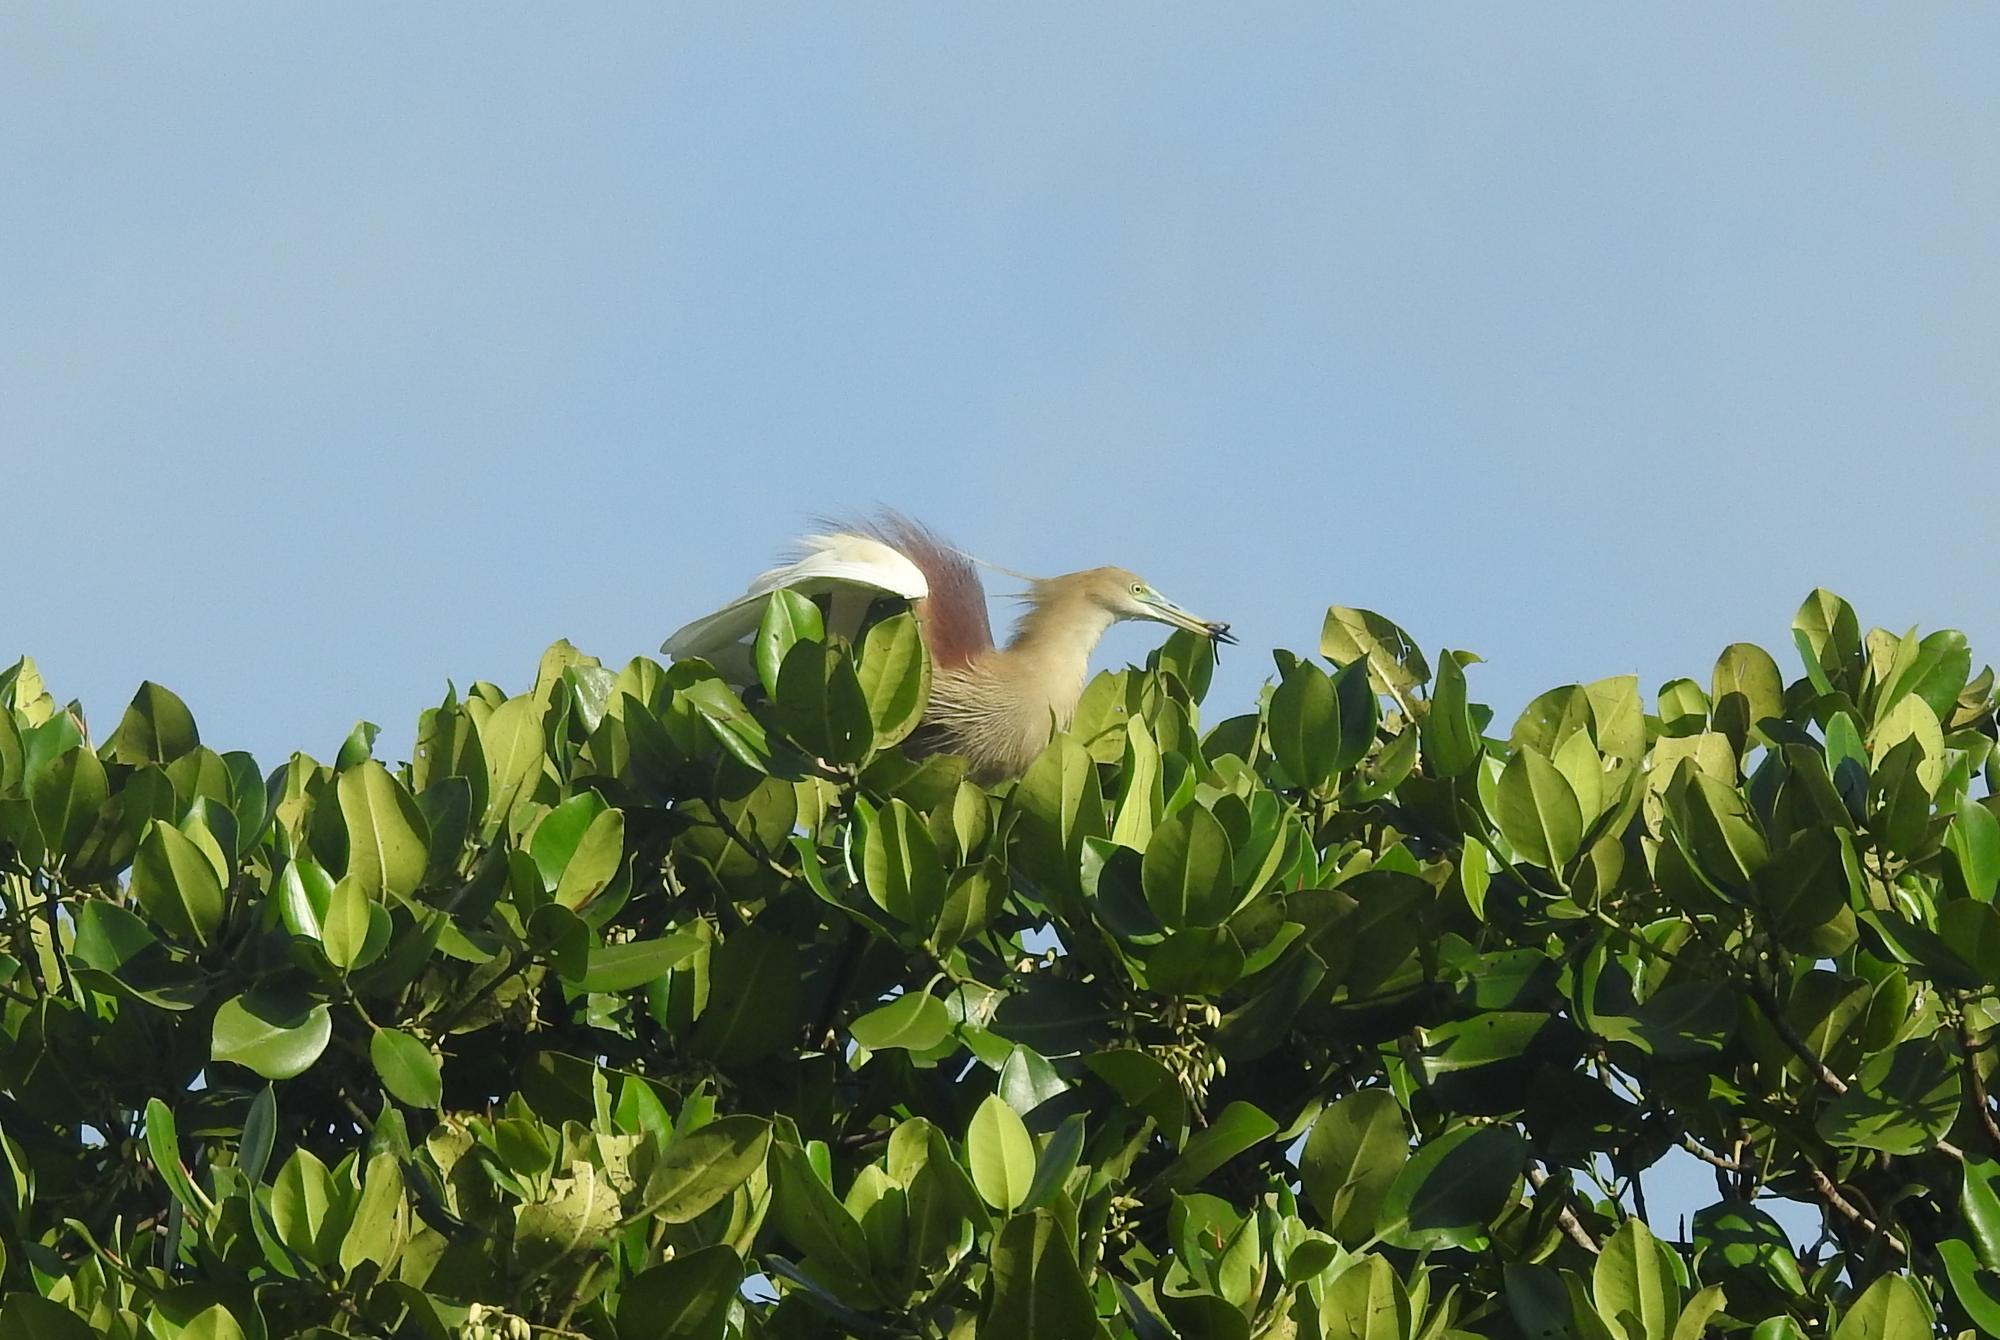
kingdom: Animalia
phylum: Chordata
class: Aves
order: Pelecaniformes
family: Ardeidae
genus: Ardeola
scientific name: Ardeola grayii
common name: Indian pond heron
